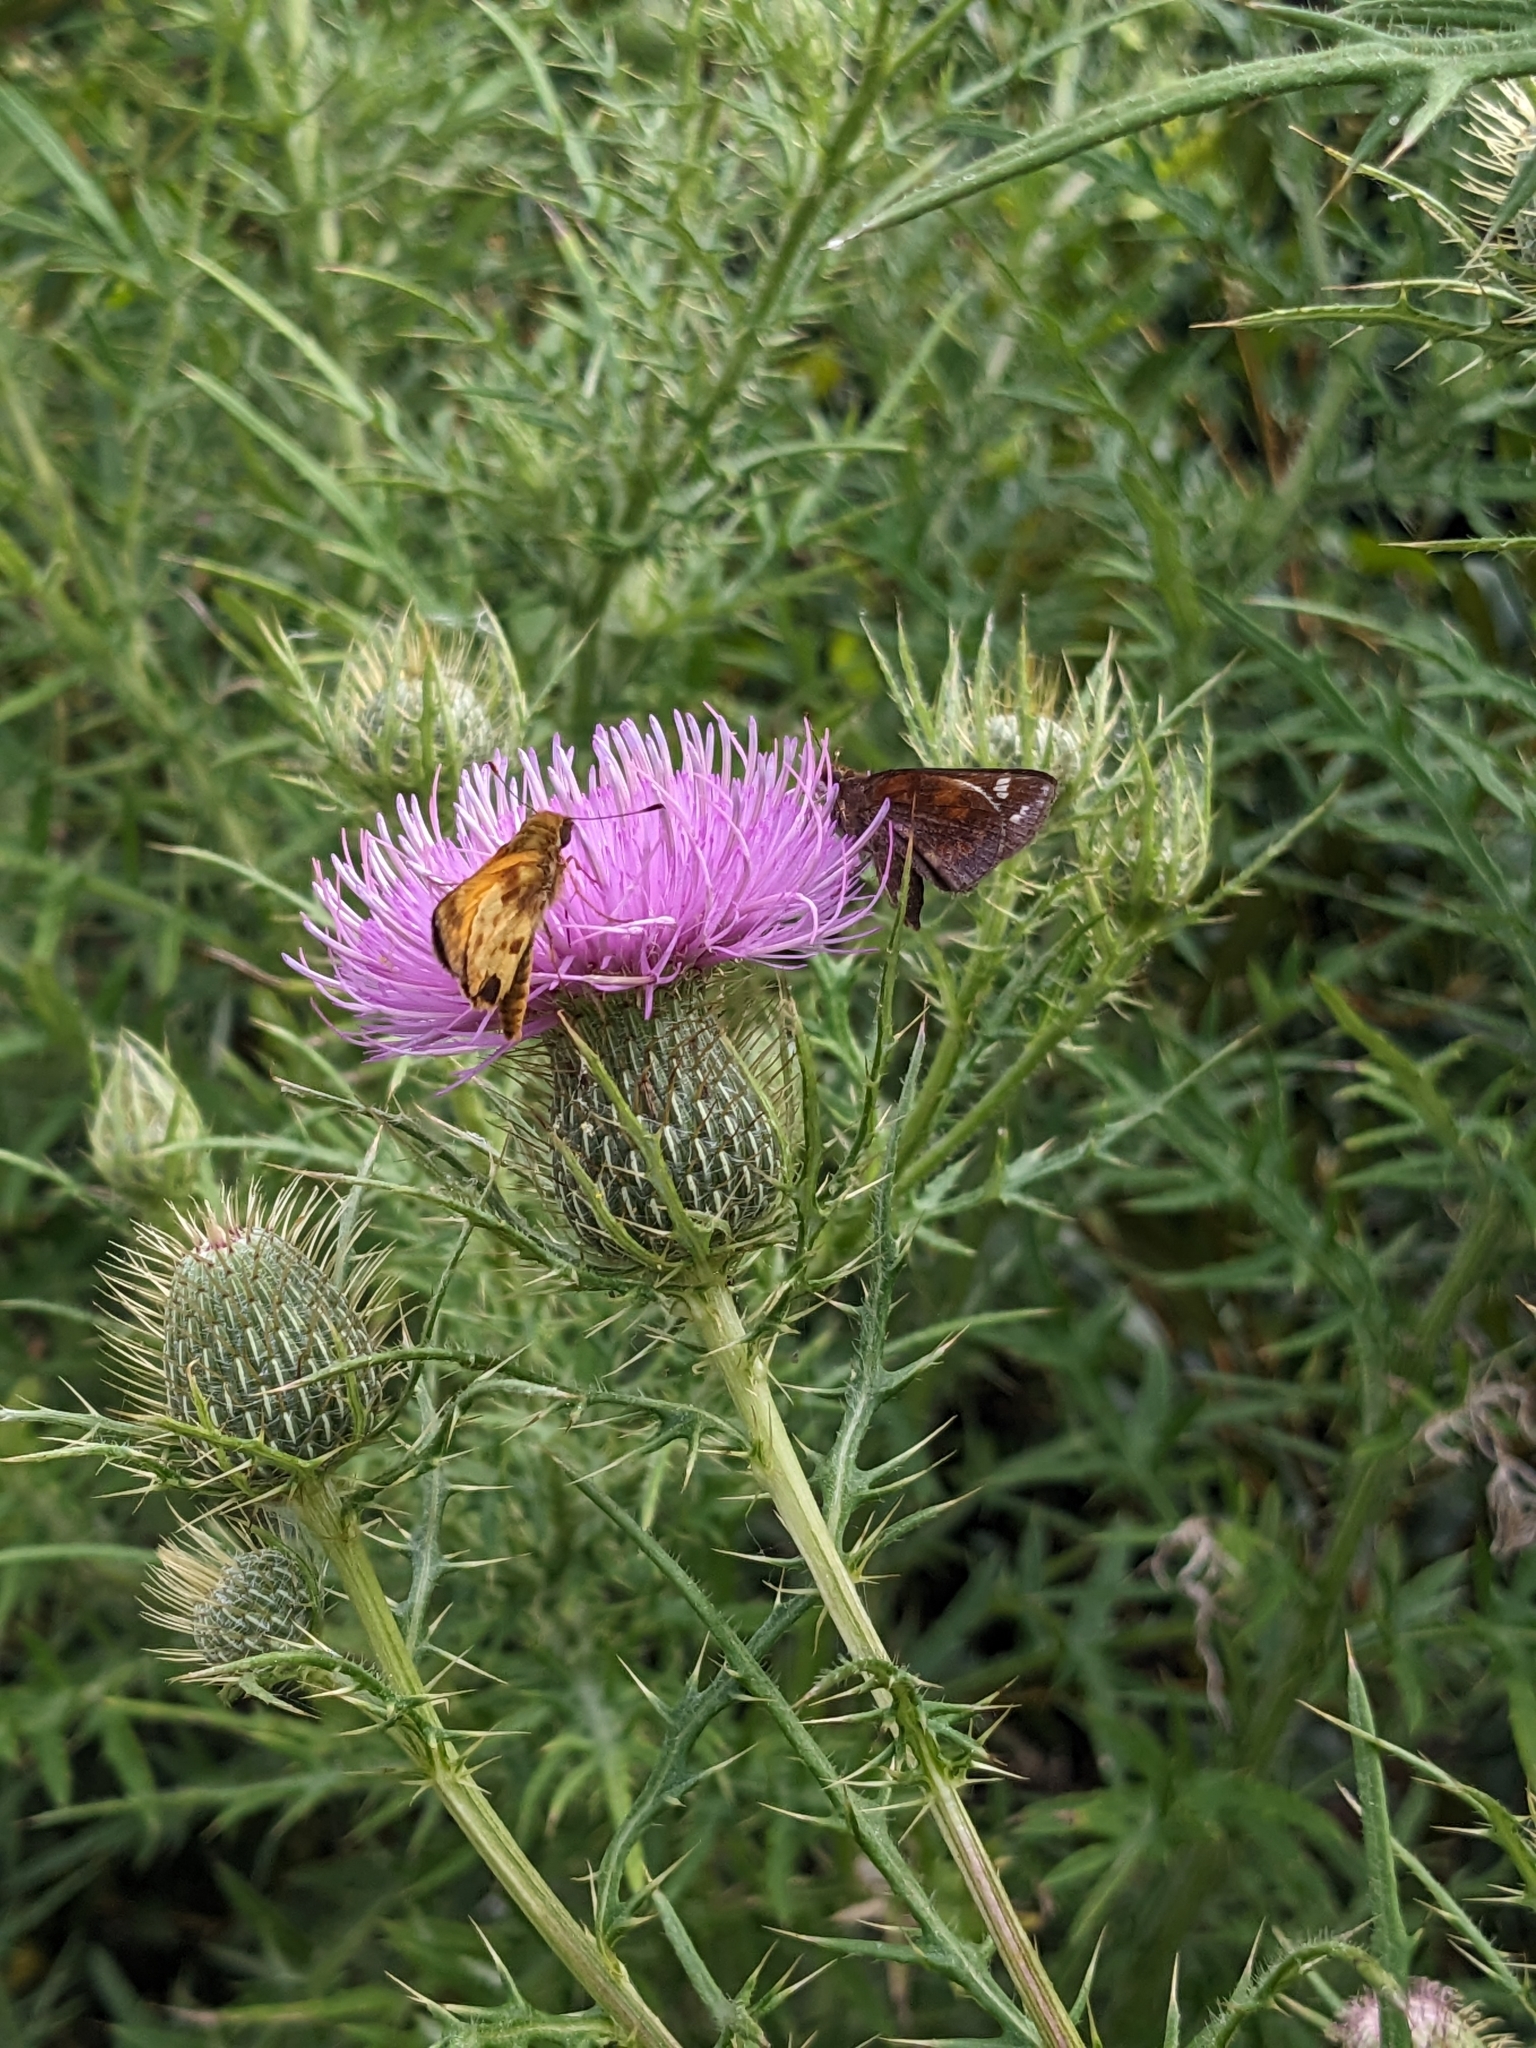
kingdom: Animalia
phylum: Arthropoda
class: Insecta
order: Lepidoptera
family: Hesperiidae
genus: Lon
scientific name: Lon zabulon
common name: Zabulon skipper
